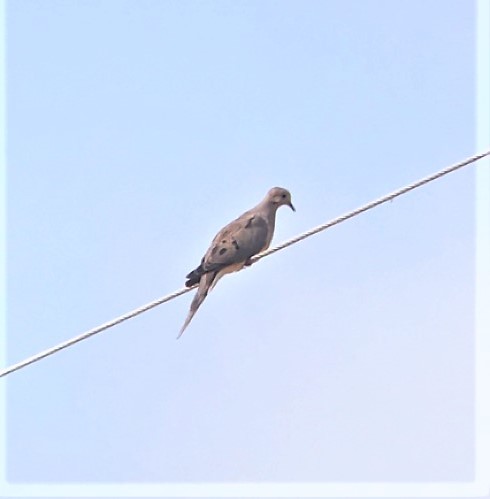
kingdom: Animalia
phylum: Chordata
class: Aves
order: Columbiformes
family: Columbidae
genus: Zenaida
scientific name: Zenaida macroura
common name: Mourning dove
